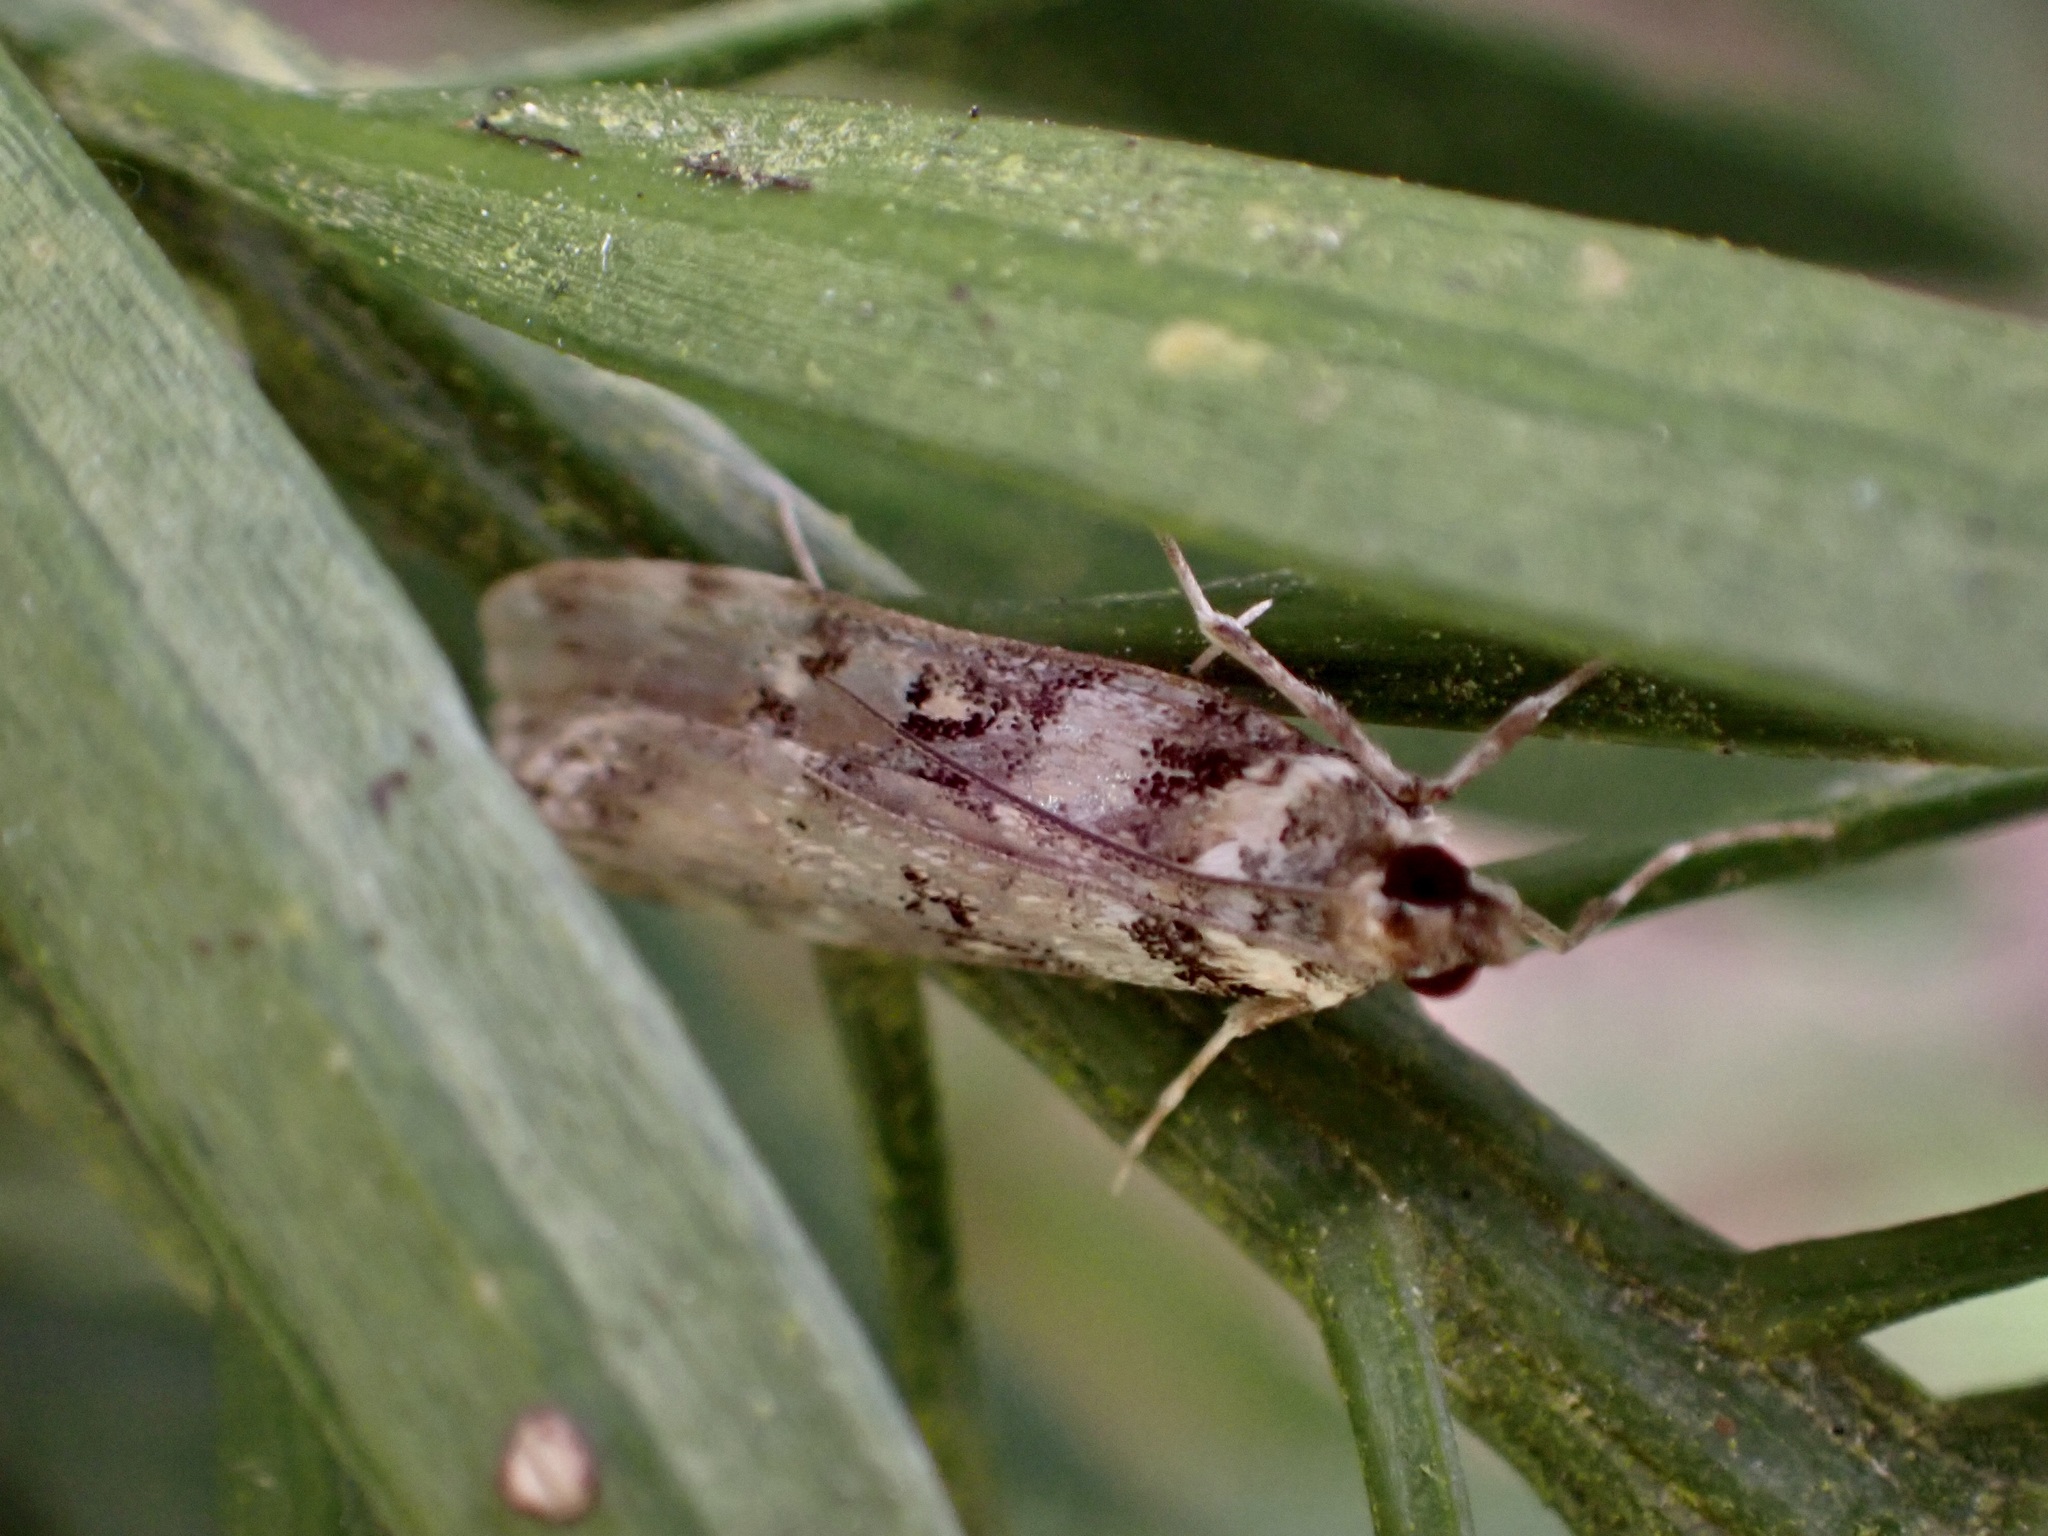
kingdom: Animalia
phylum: Arthropoda
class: Insecta
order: Lepidoptera
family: Crambidae
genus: Eudonia
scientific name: Eudonia diphtheralis
